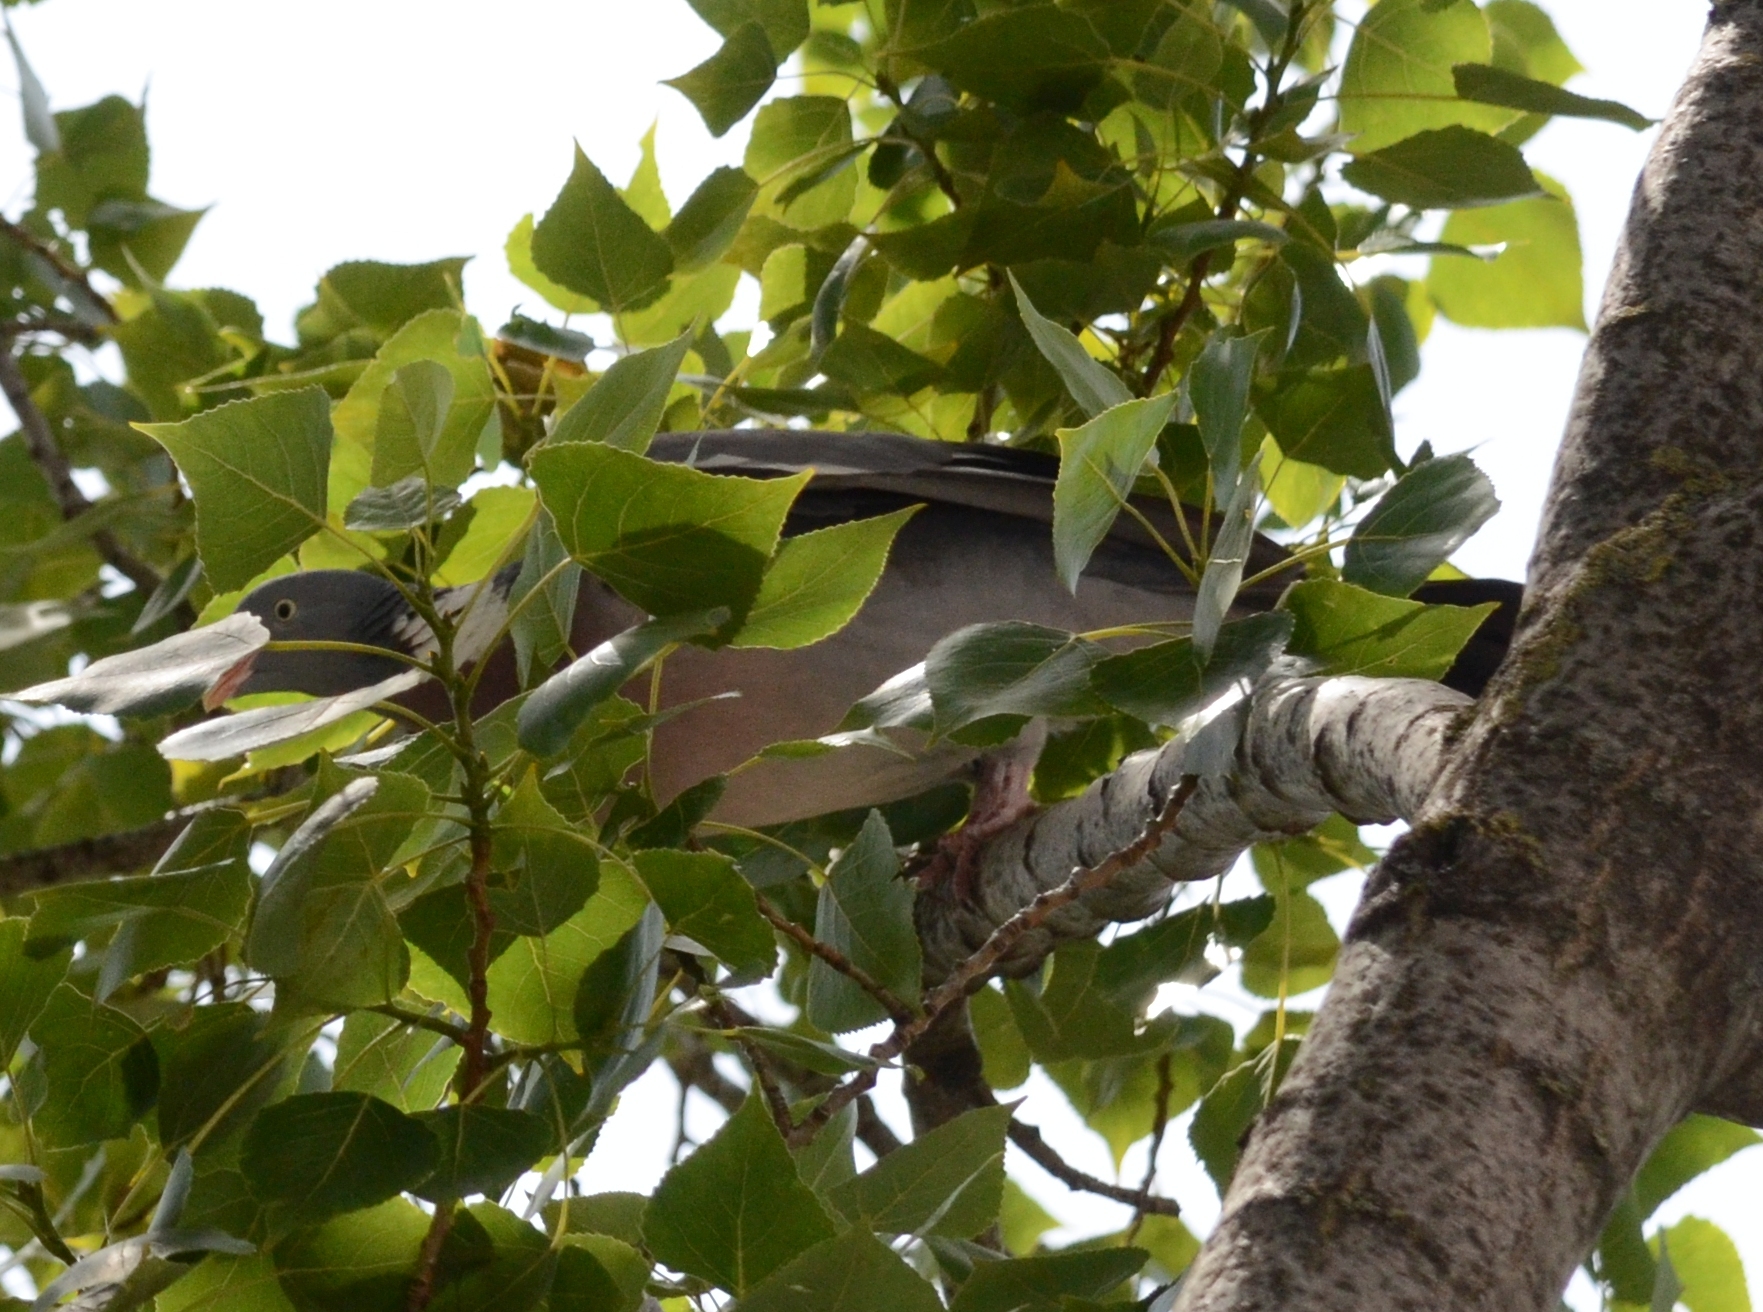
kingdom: Animalia
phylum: Chordata
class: Aves
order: Columbiformes
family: Columbidae
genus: Columba
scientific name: Columba palumbus
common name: Common wood pigeon
